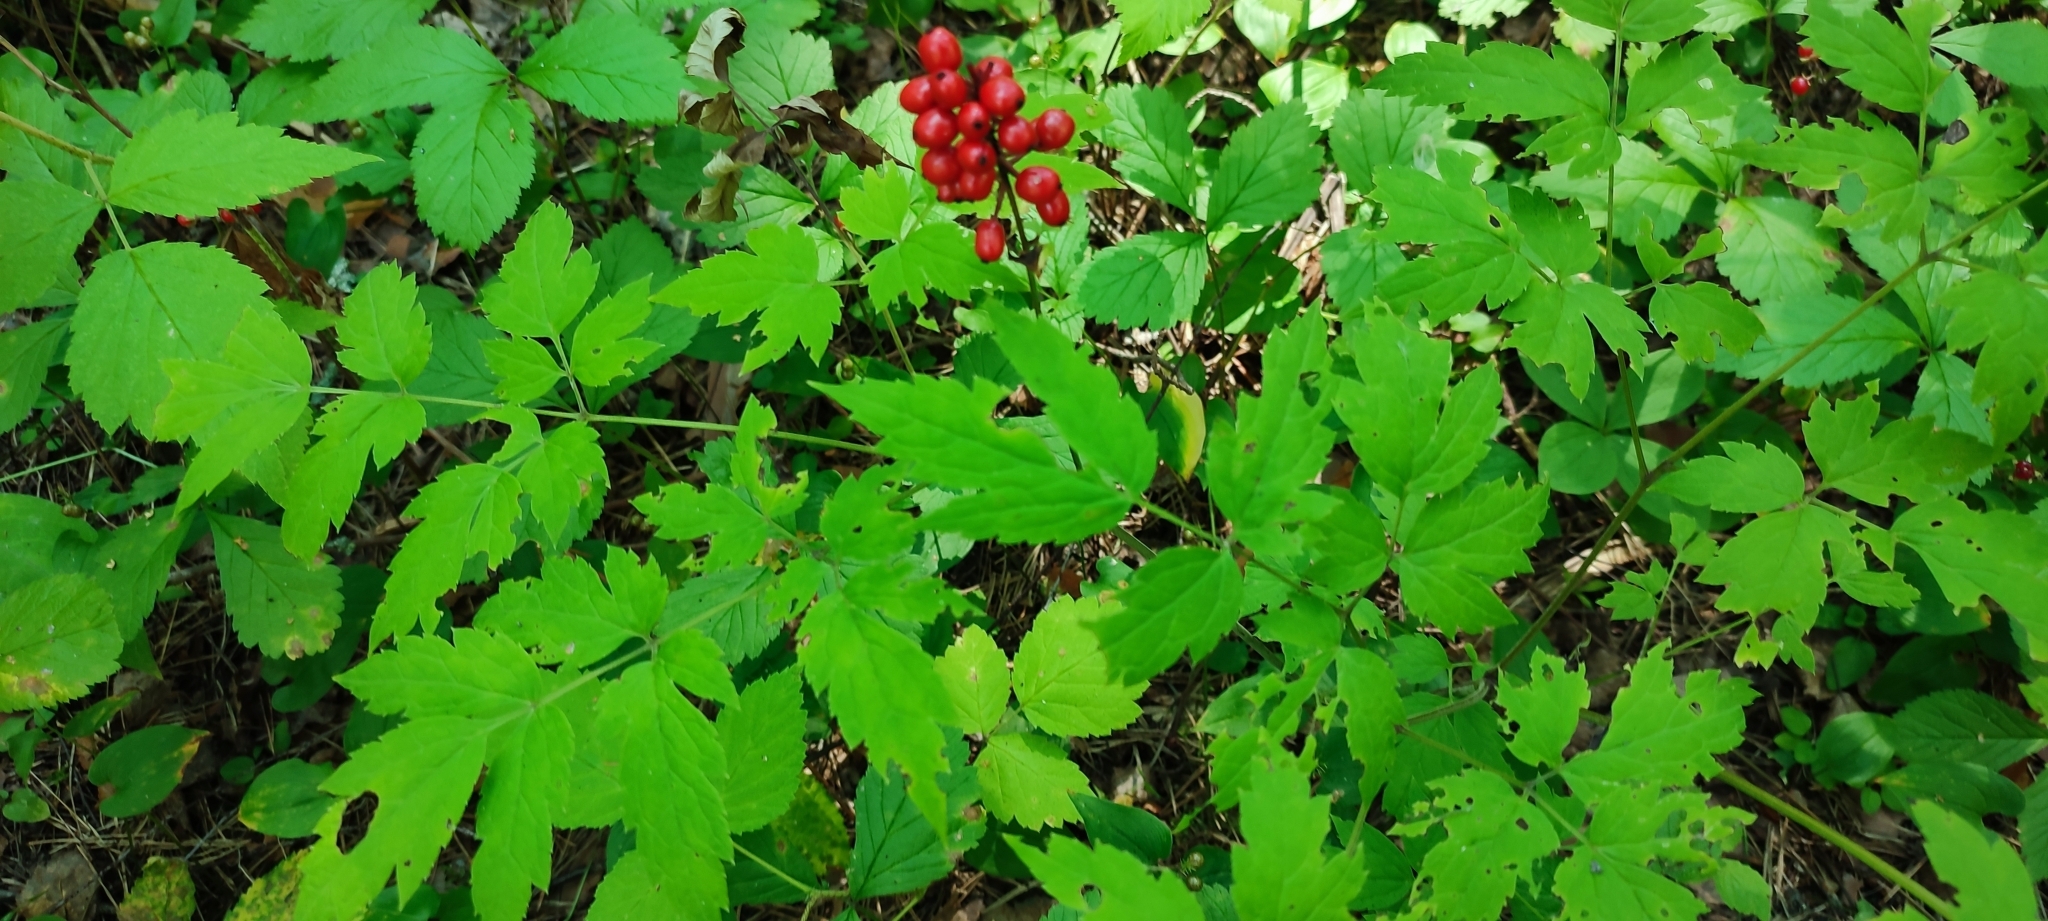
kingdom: Plantae
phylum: Tracheophyta
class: Magnoliopsida
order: Ranunculales
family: Ranunculaceae
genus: Actaea
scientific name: Actaea erythrocarpa
